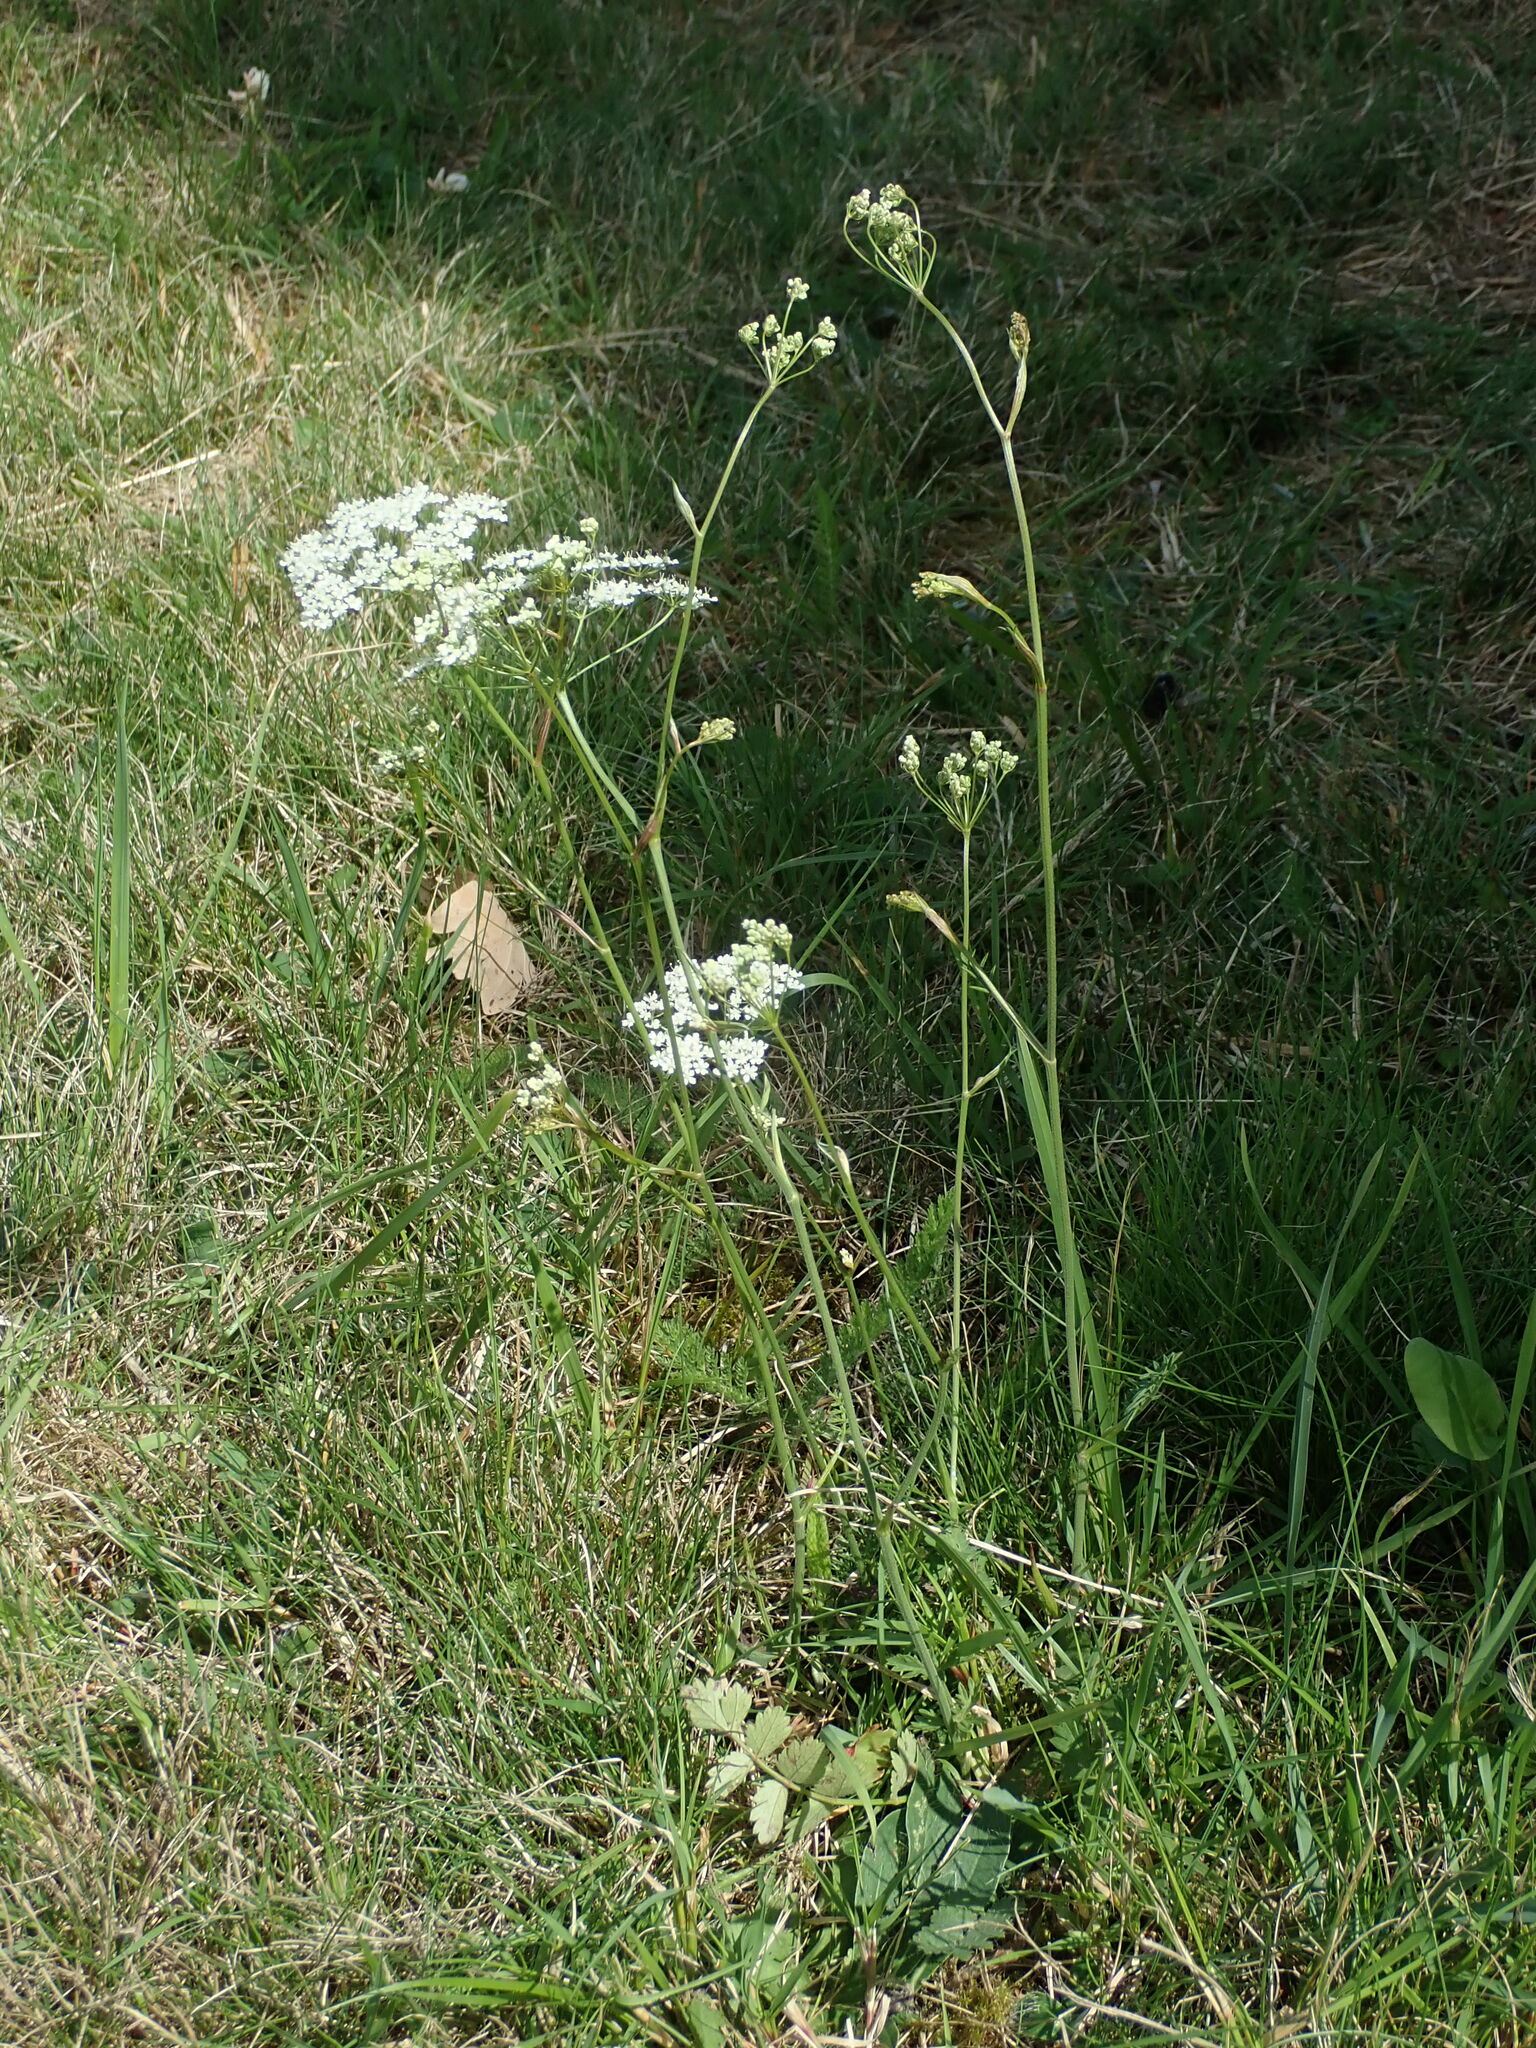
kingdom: Plantae
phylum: Tracheophyta
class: Magnoliopsida
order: Apiales
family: Apiaceae
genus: Pimpinella
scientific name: Pimpinella saxifraga
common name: Burnet-saxifrage
